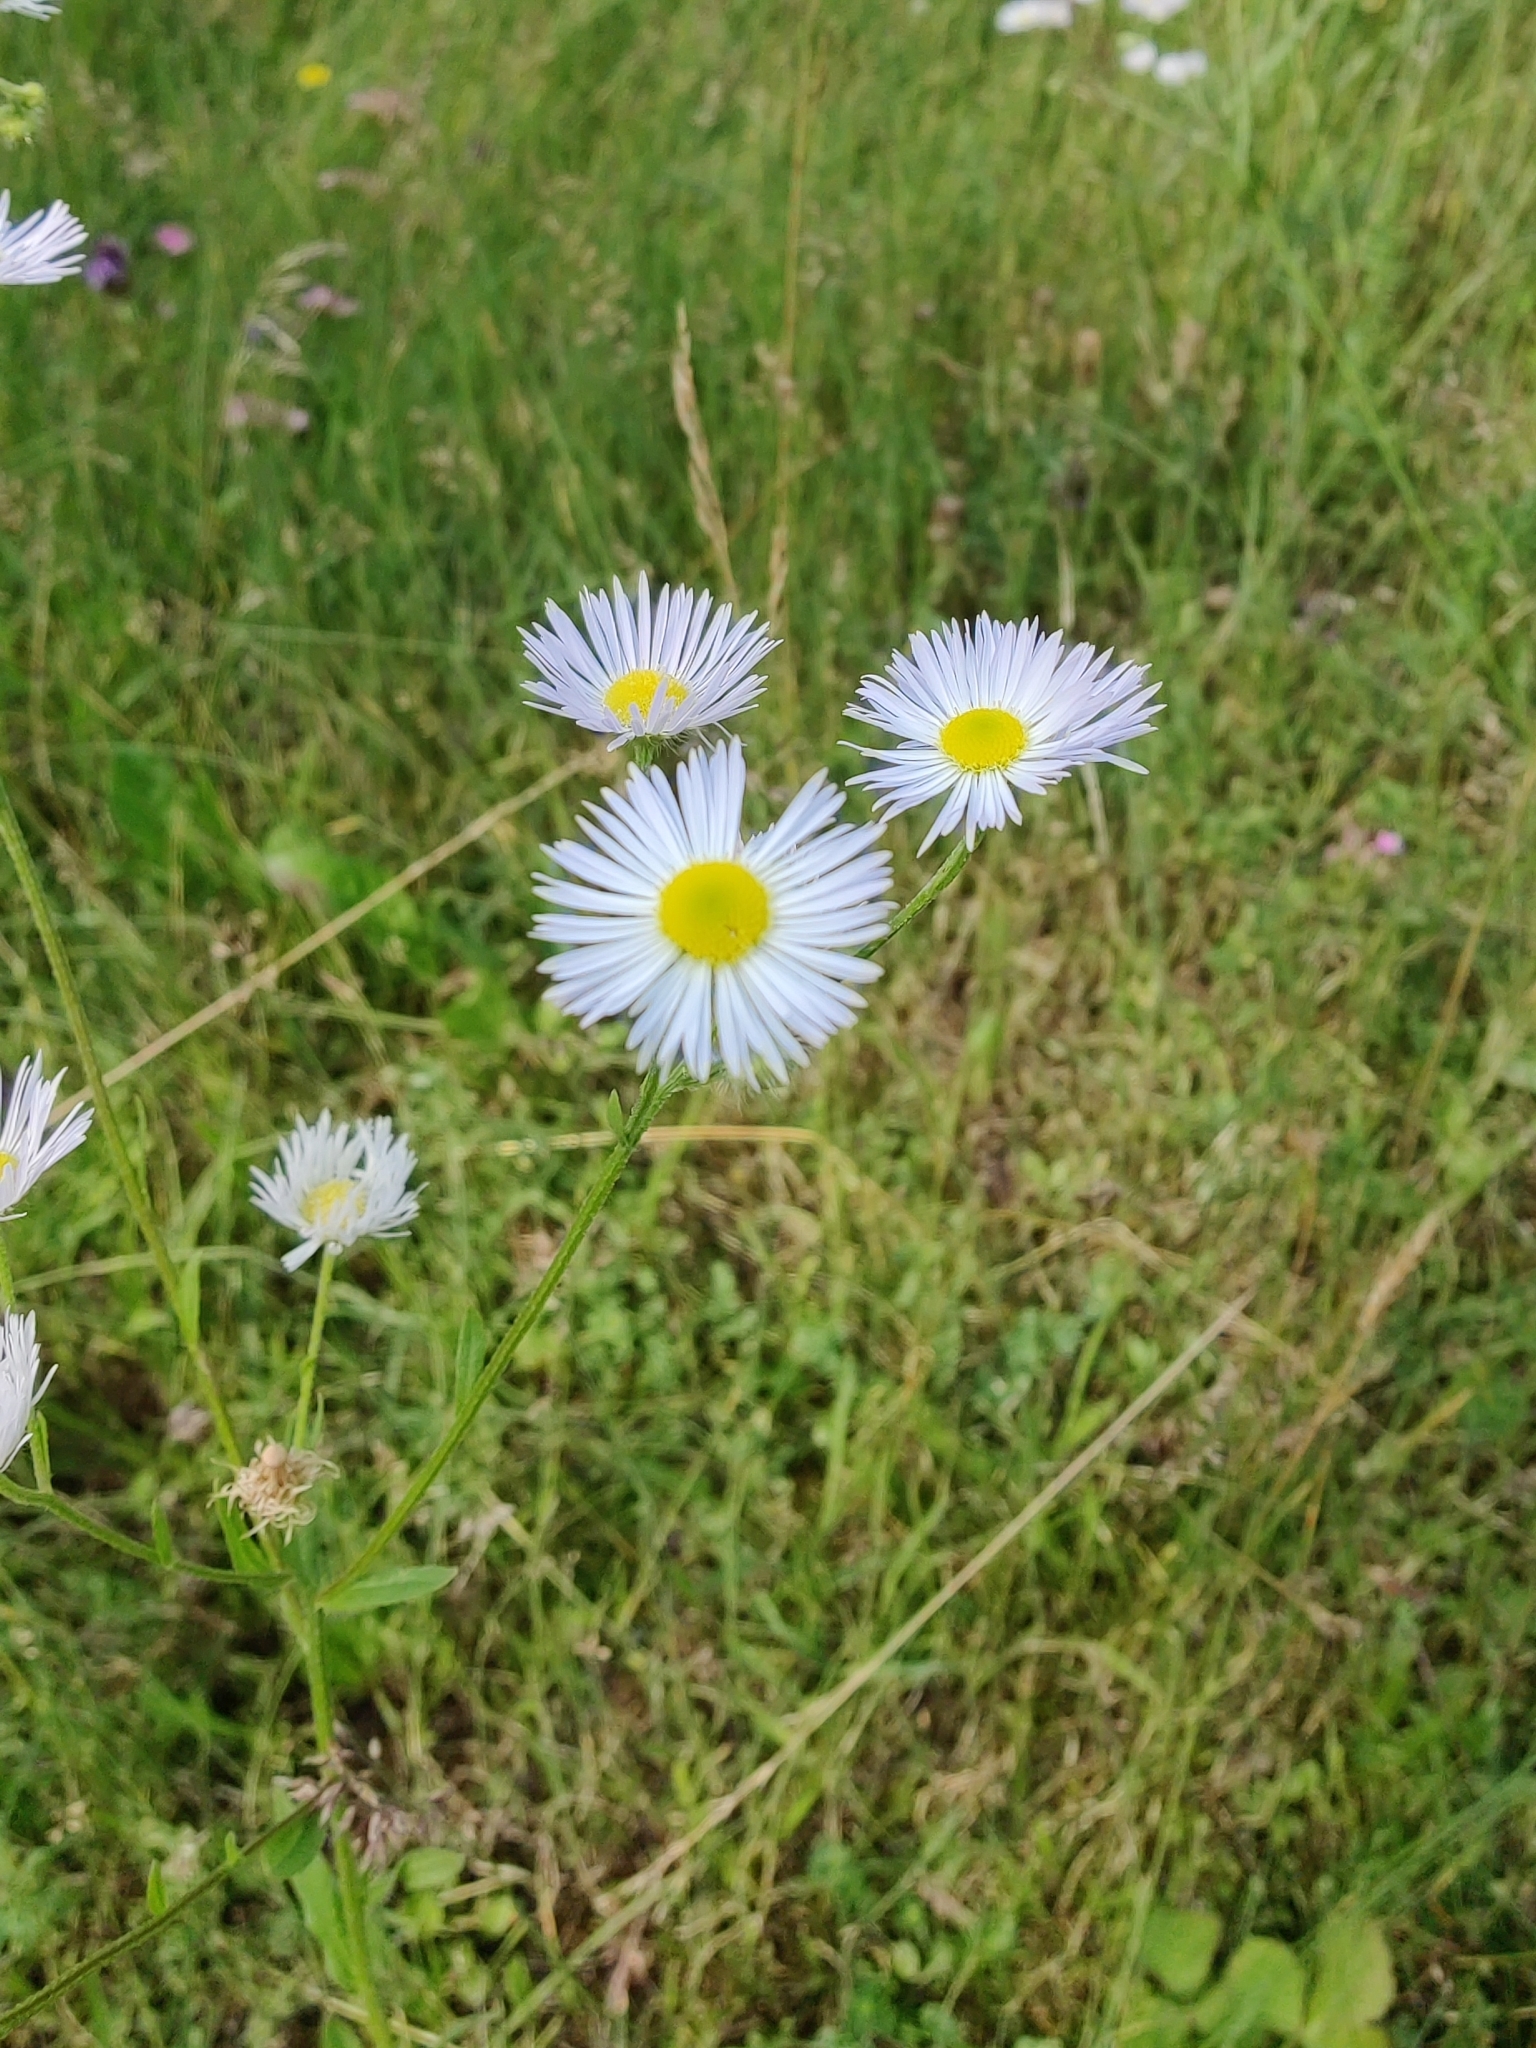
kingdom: Plantae
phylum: Tracheophyta
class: Magnoliopsida
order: Asterales
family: Asteraceae
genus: Erigeron
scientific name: Erigeron annuus
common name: Tall fleabane
